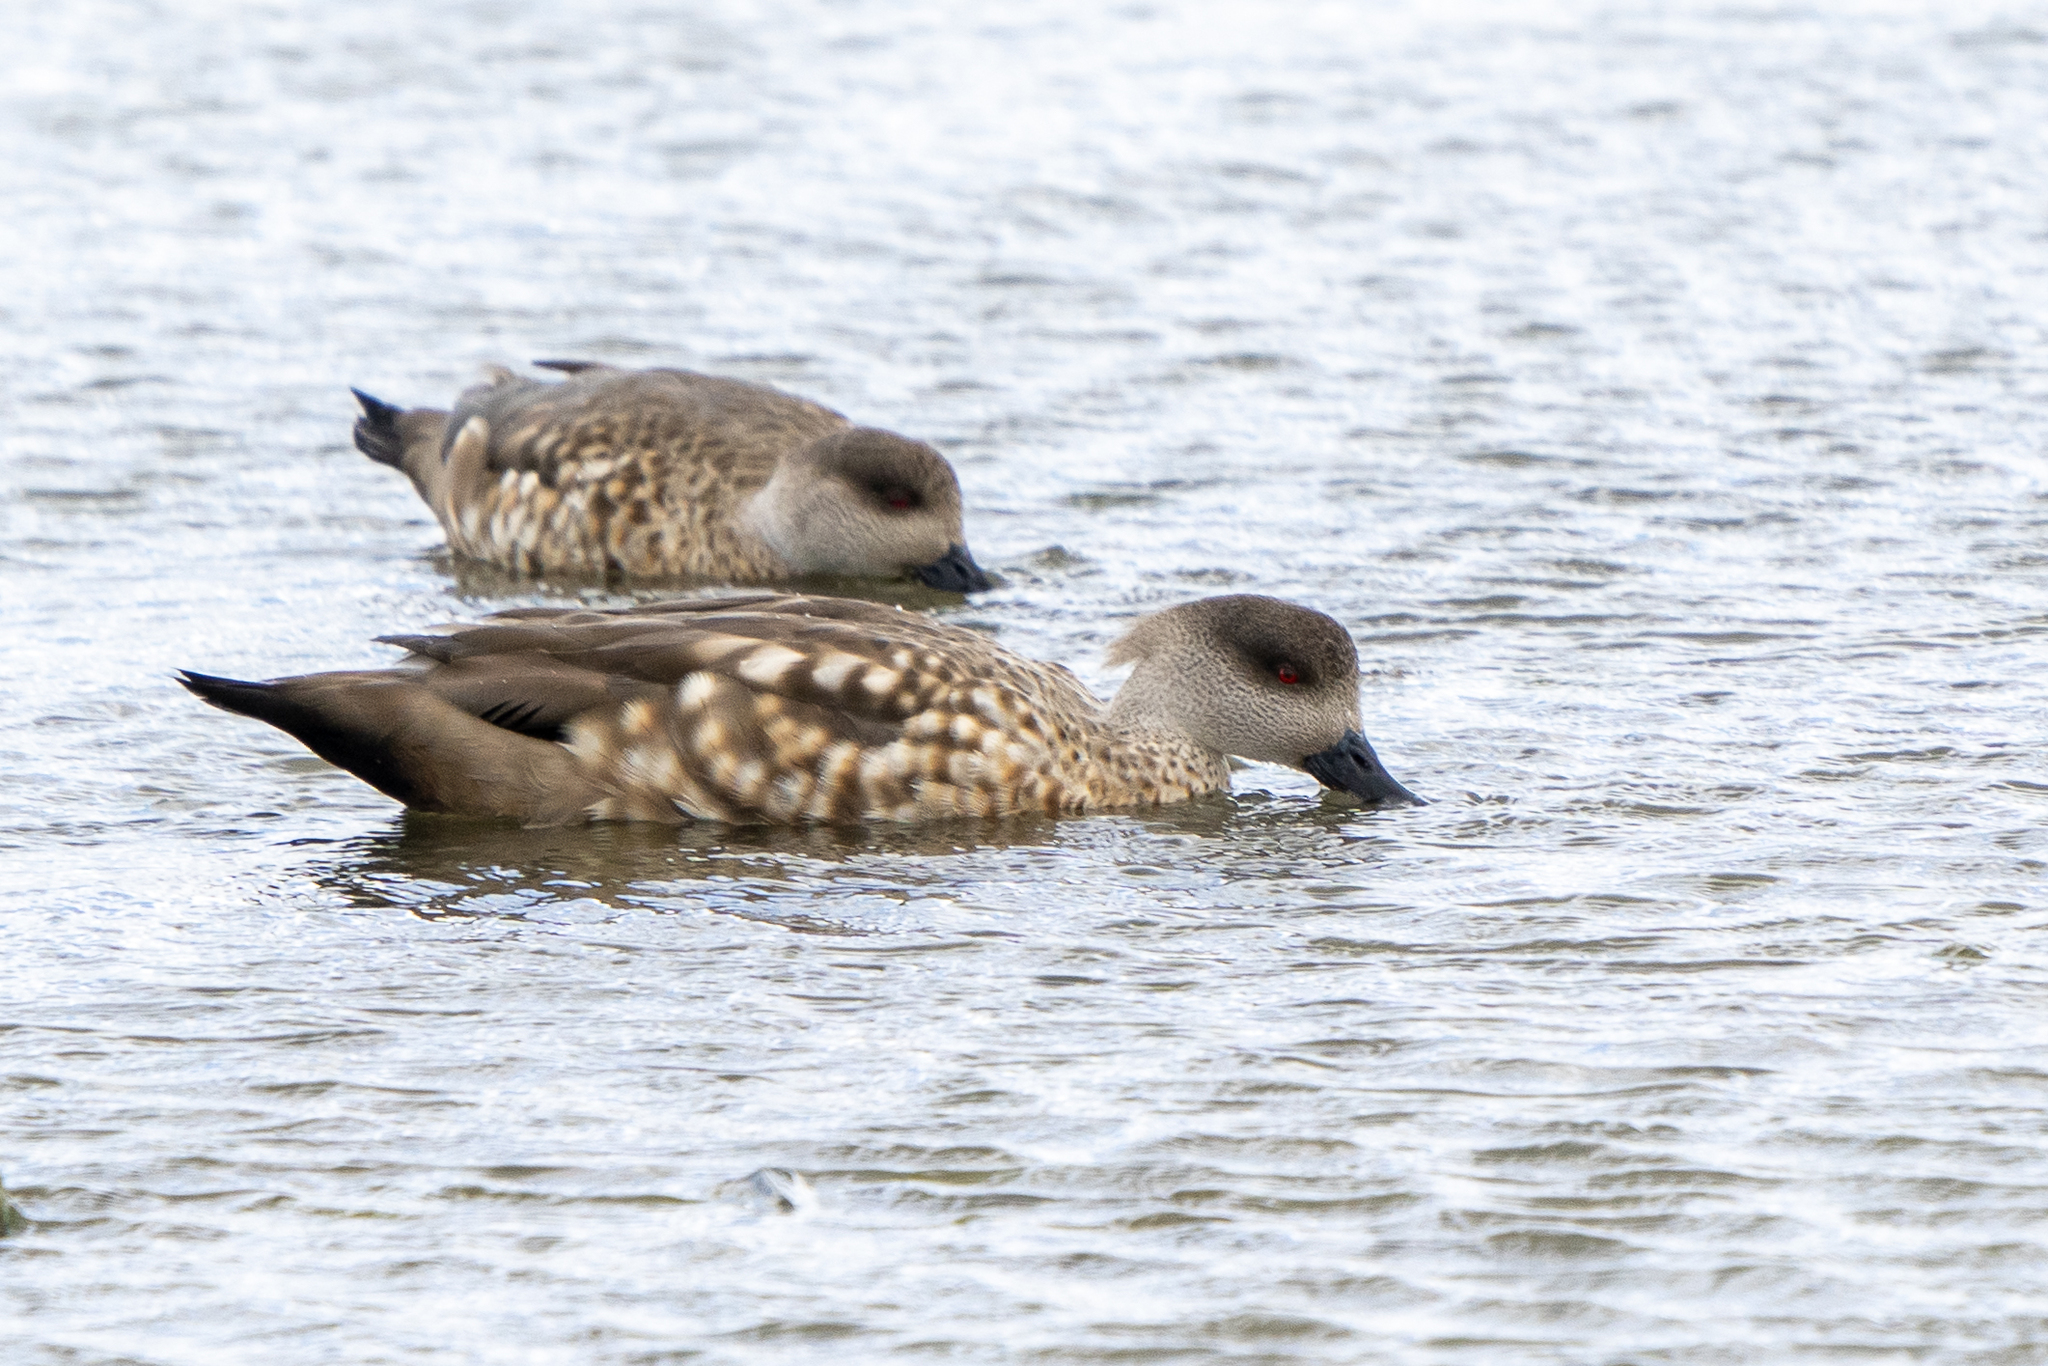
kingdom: Animalia
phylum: Chordata
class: Aves
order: Anseriformes
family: Anatidae
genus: Lophonetta
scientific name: Lophonetta specularioides
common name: Crested duck
